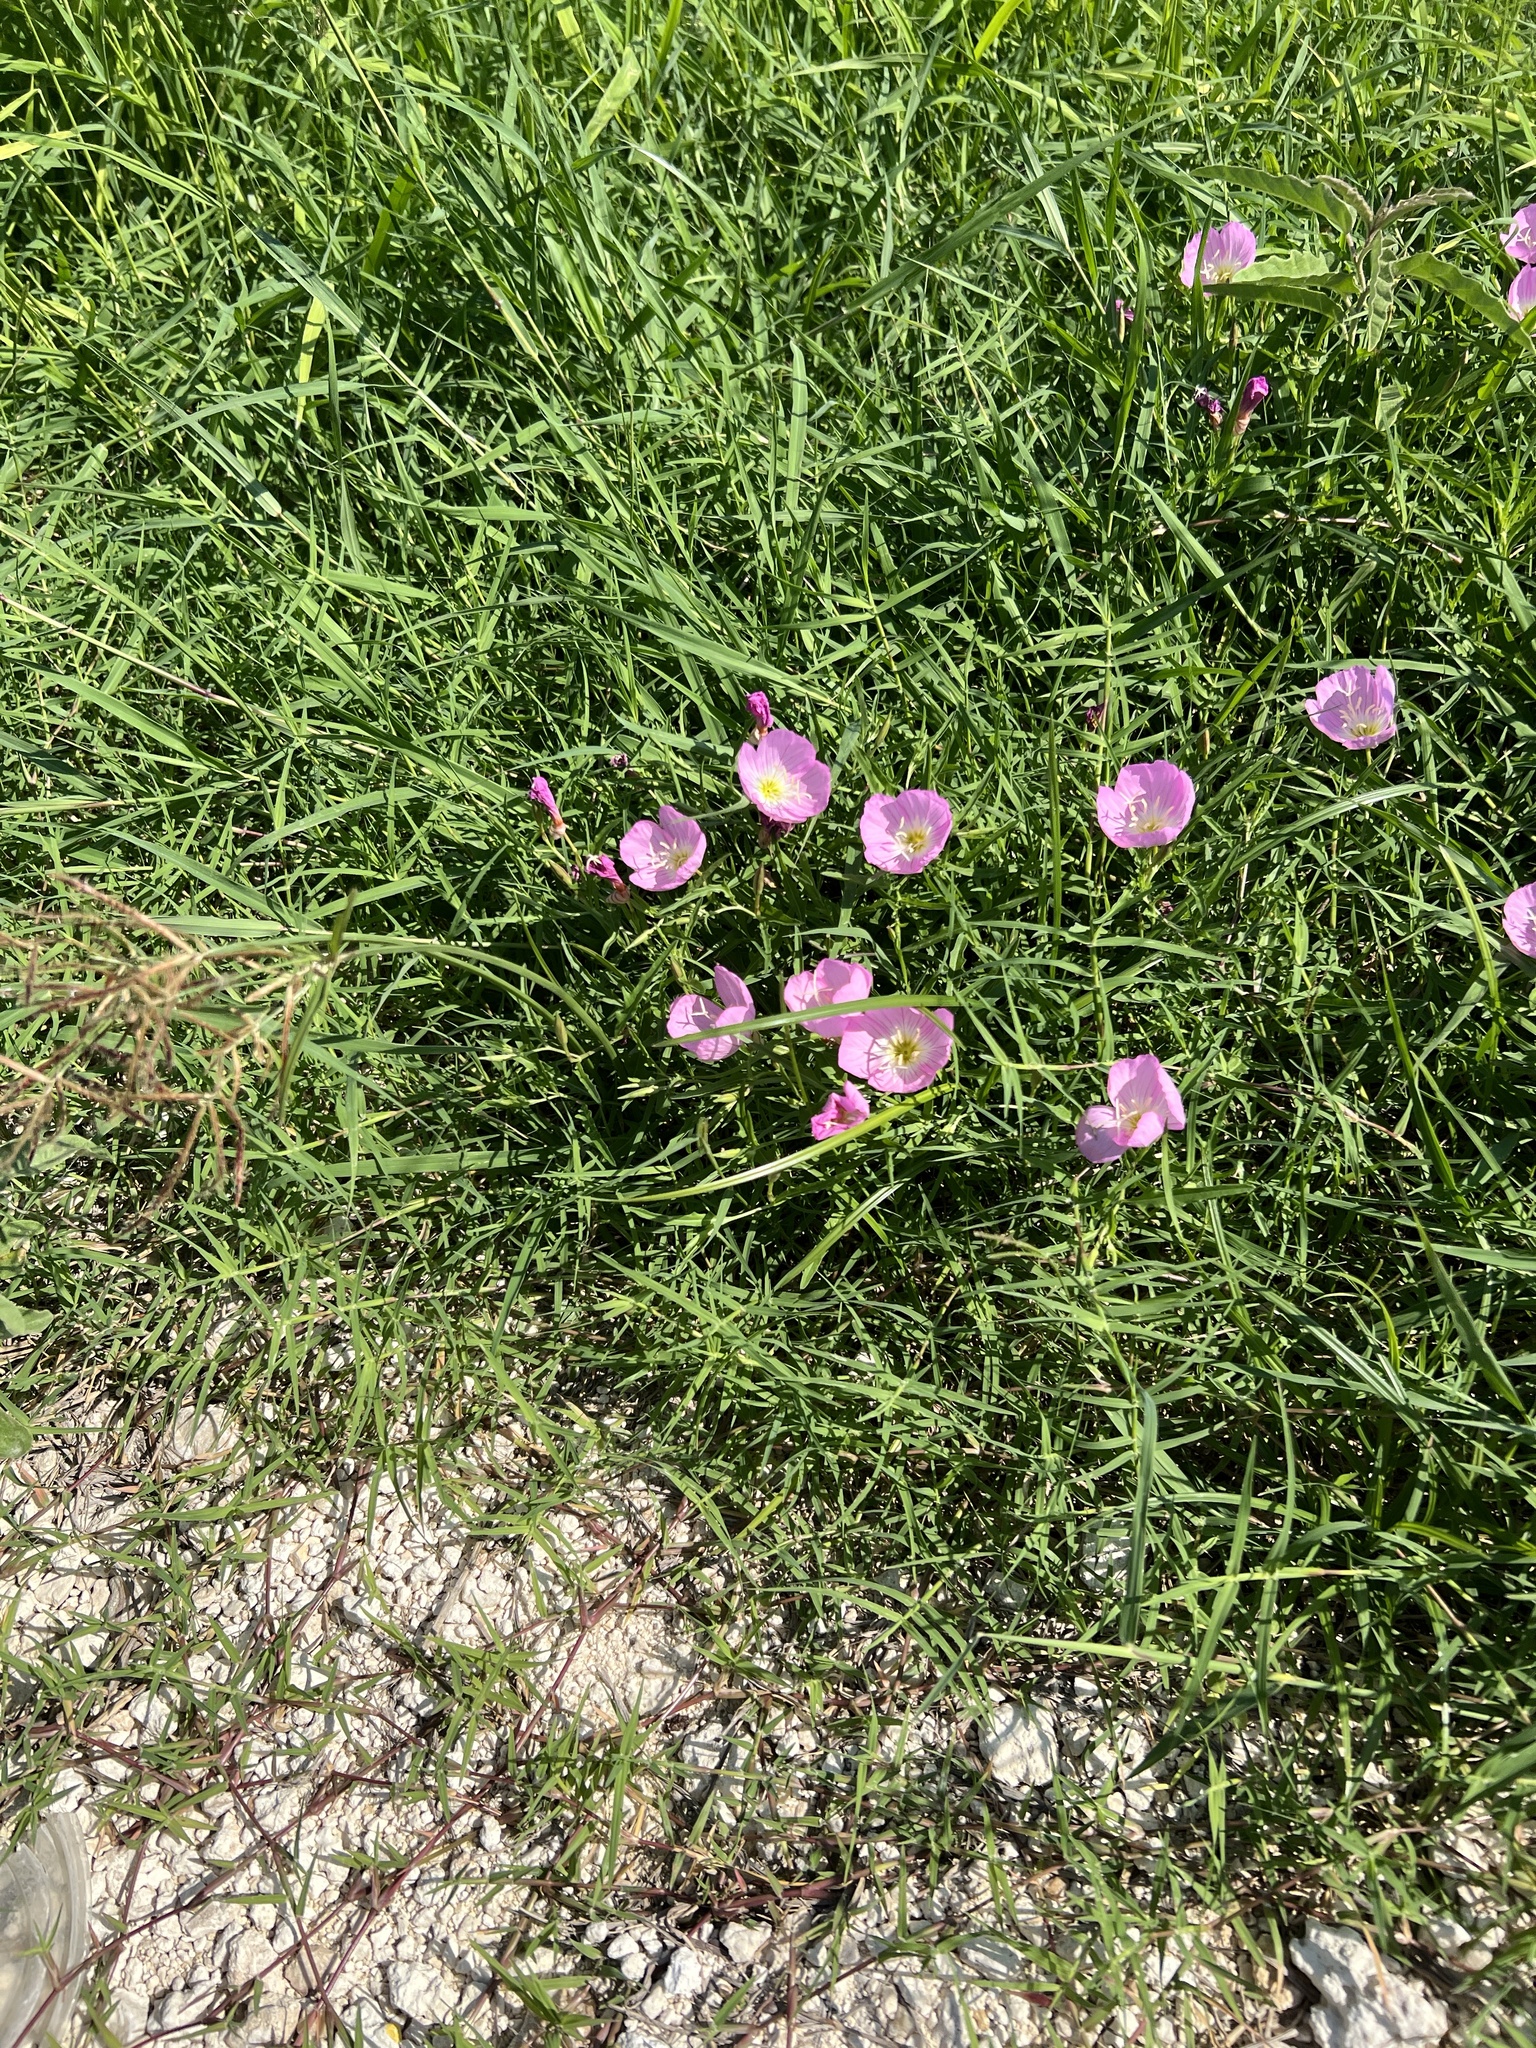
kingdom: Plantae
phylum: Tracheophyta
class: Magnoliopsida
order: Myrtales
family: Onagraceae
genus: Oenothera
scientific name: Oenothera speciosa
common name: White evening-primrose
